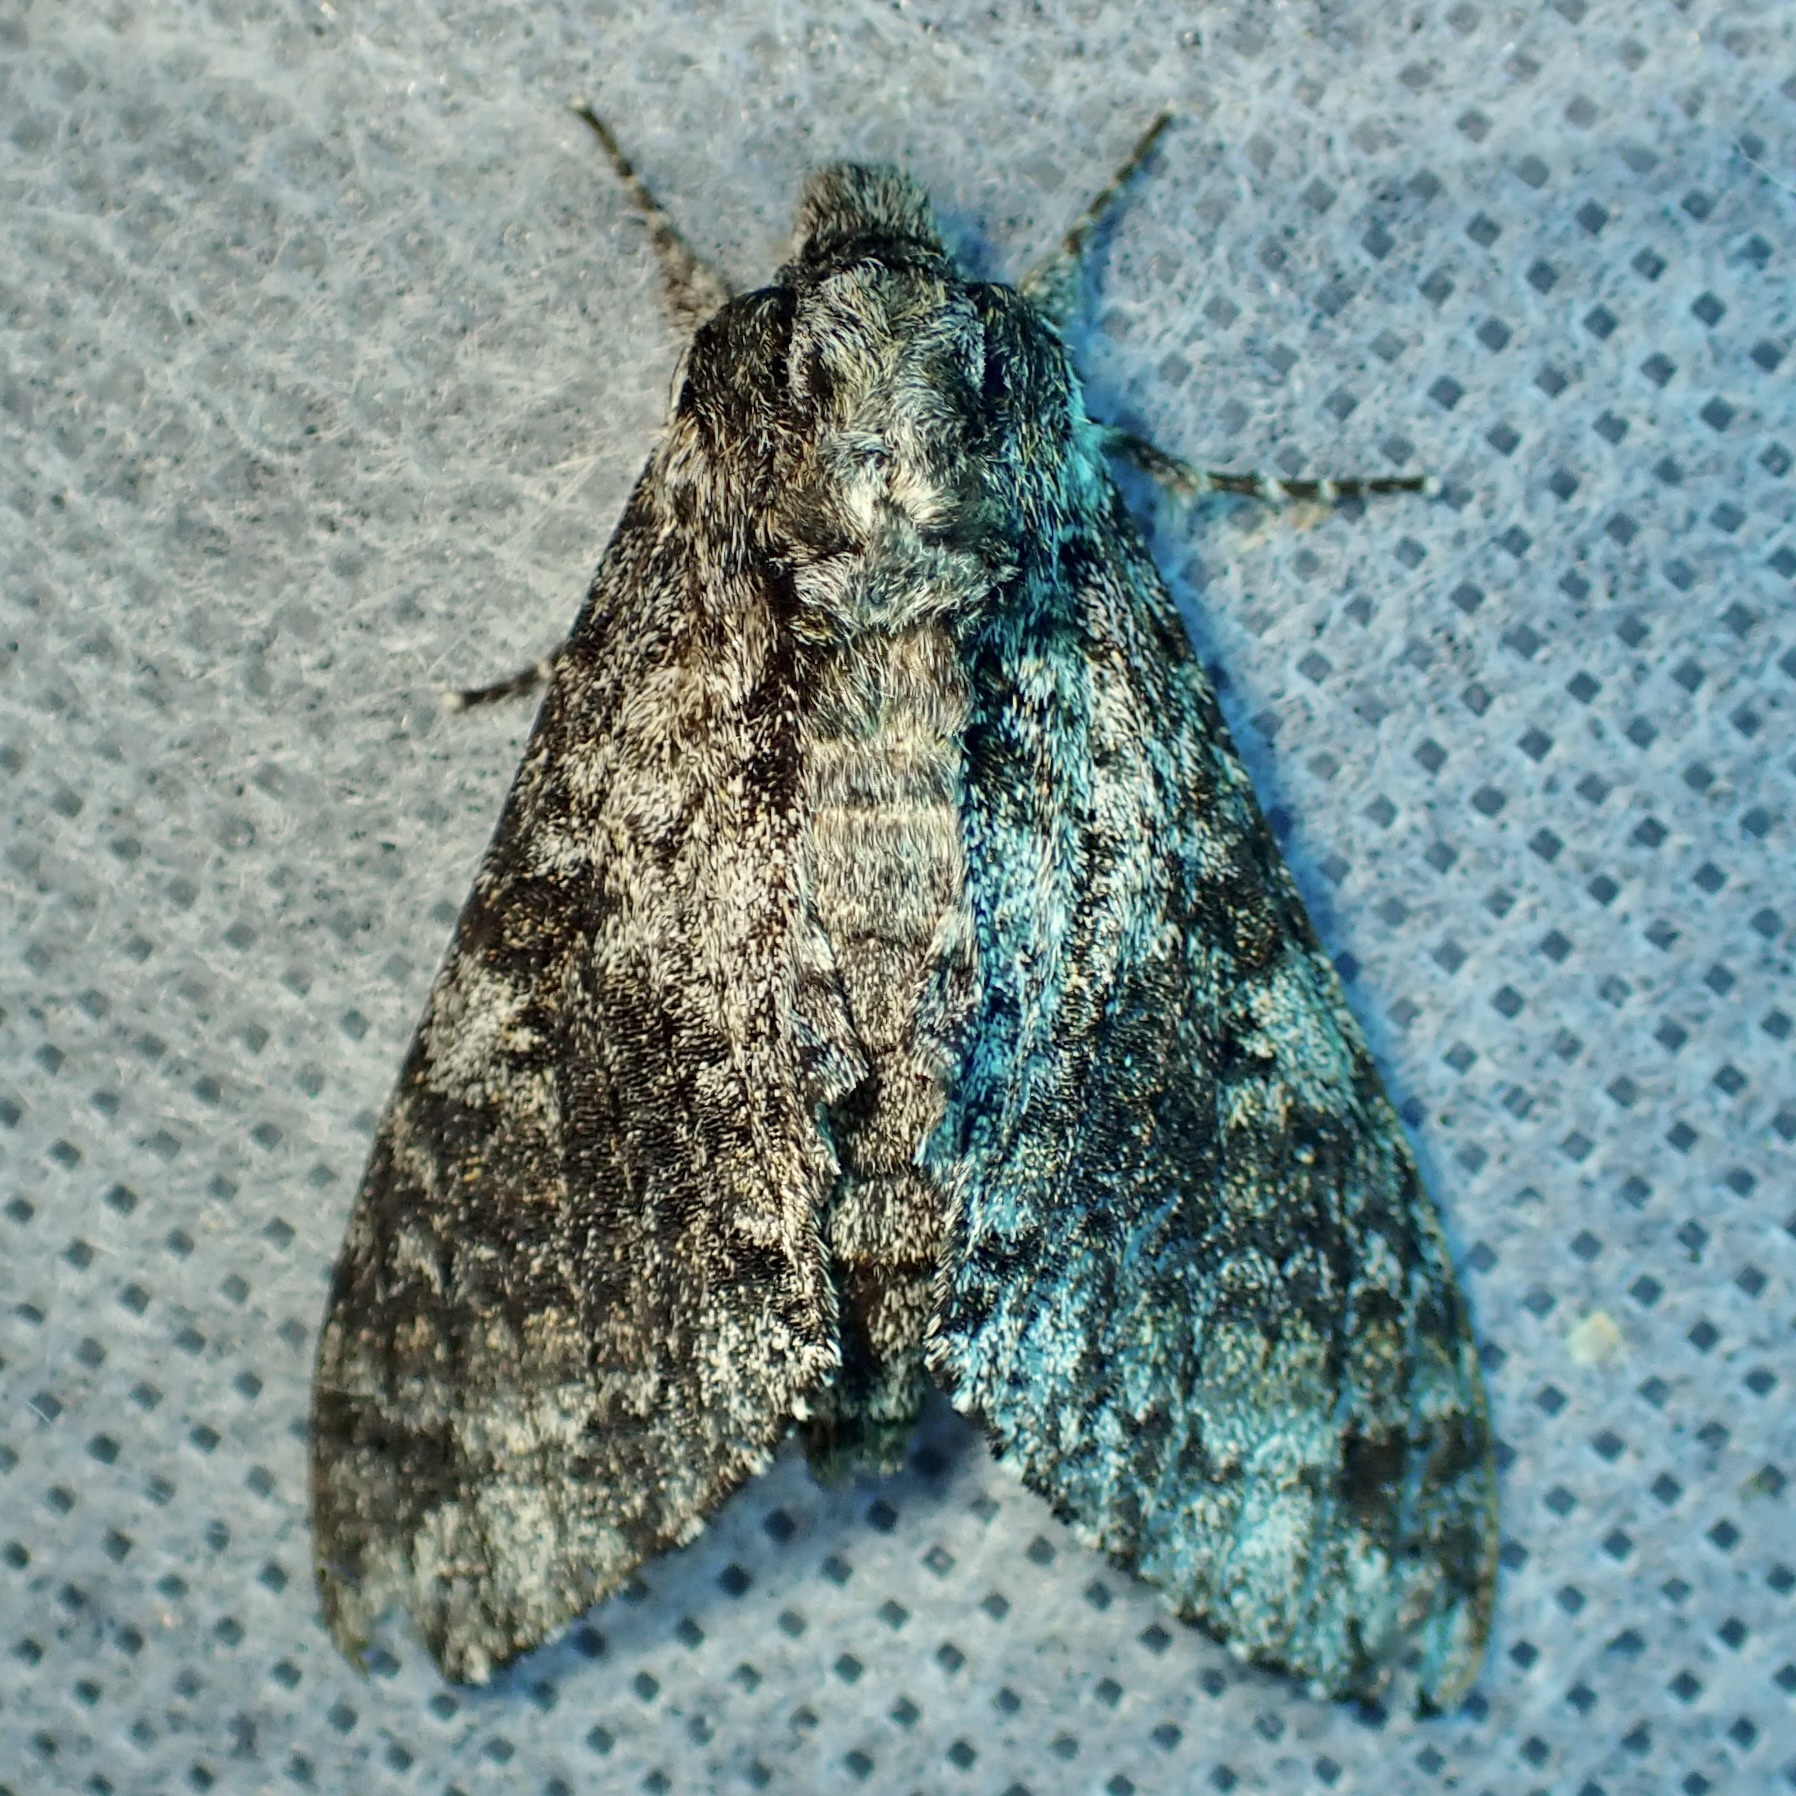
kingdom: Animalia
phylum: Arthropoda
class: Insecta
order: Lepidoptera
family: Sphingidae
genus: Dolbogene
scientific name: Dolbogene hartwegii
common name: Hartweg's sphinx
